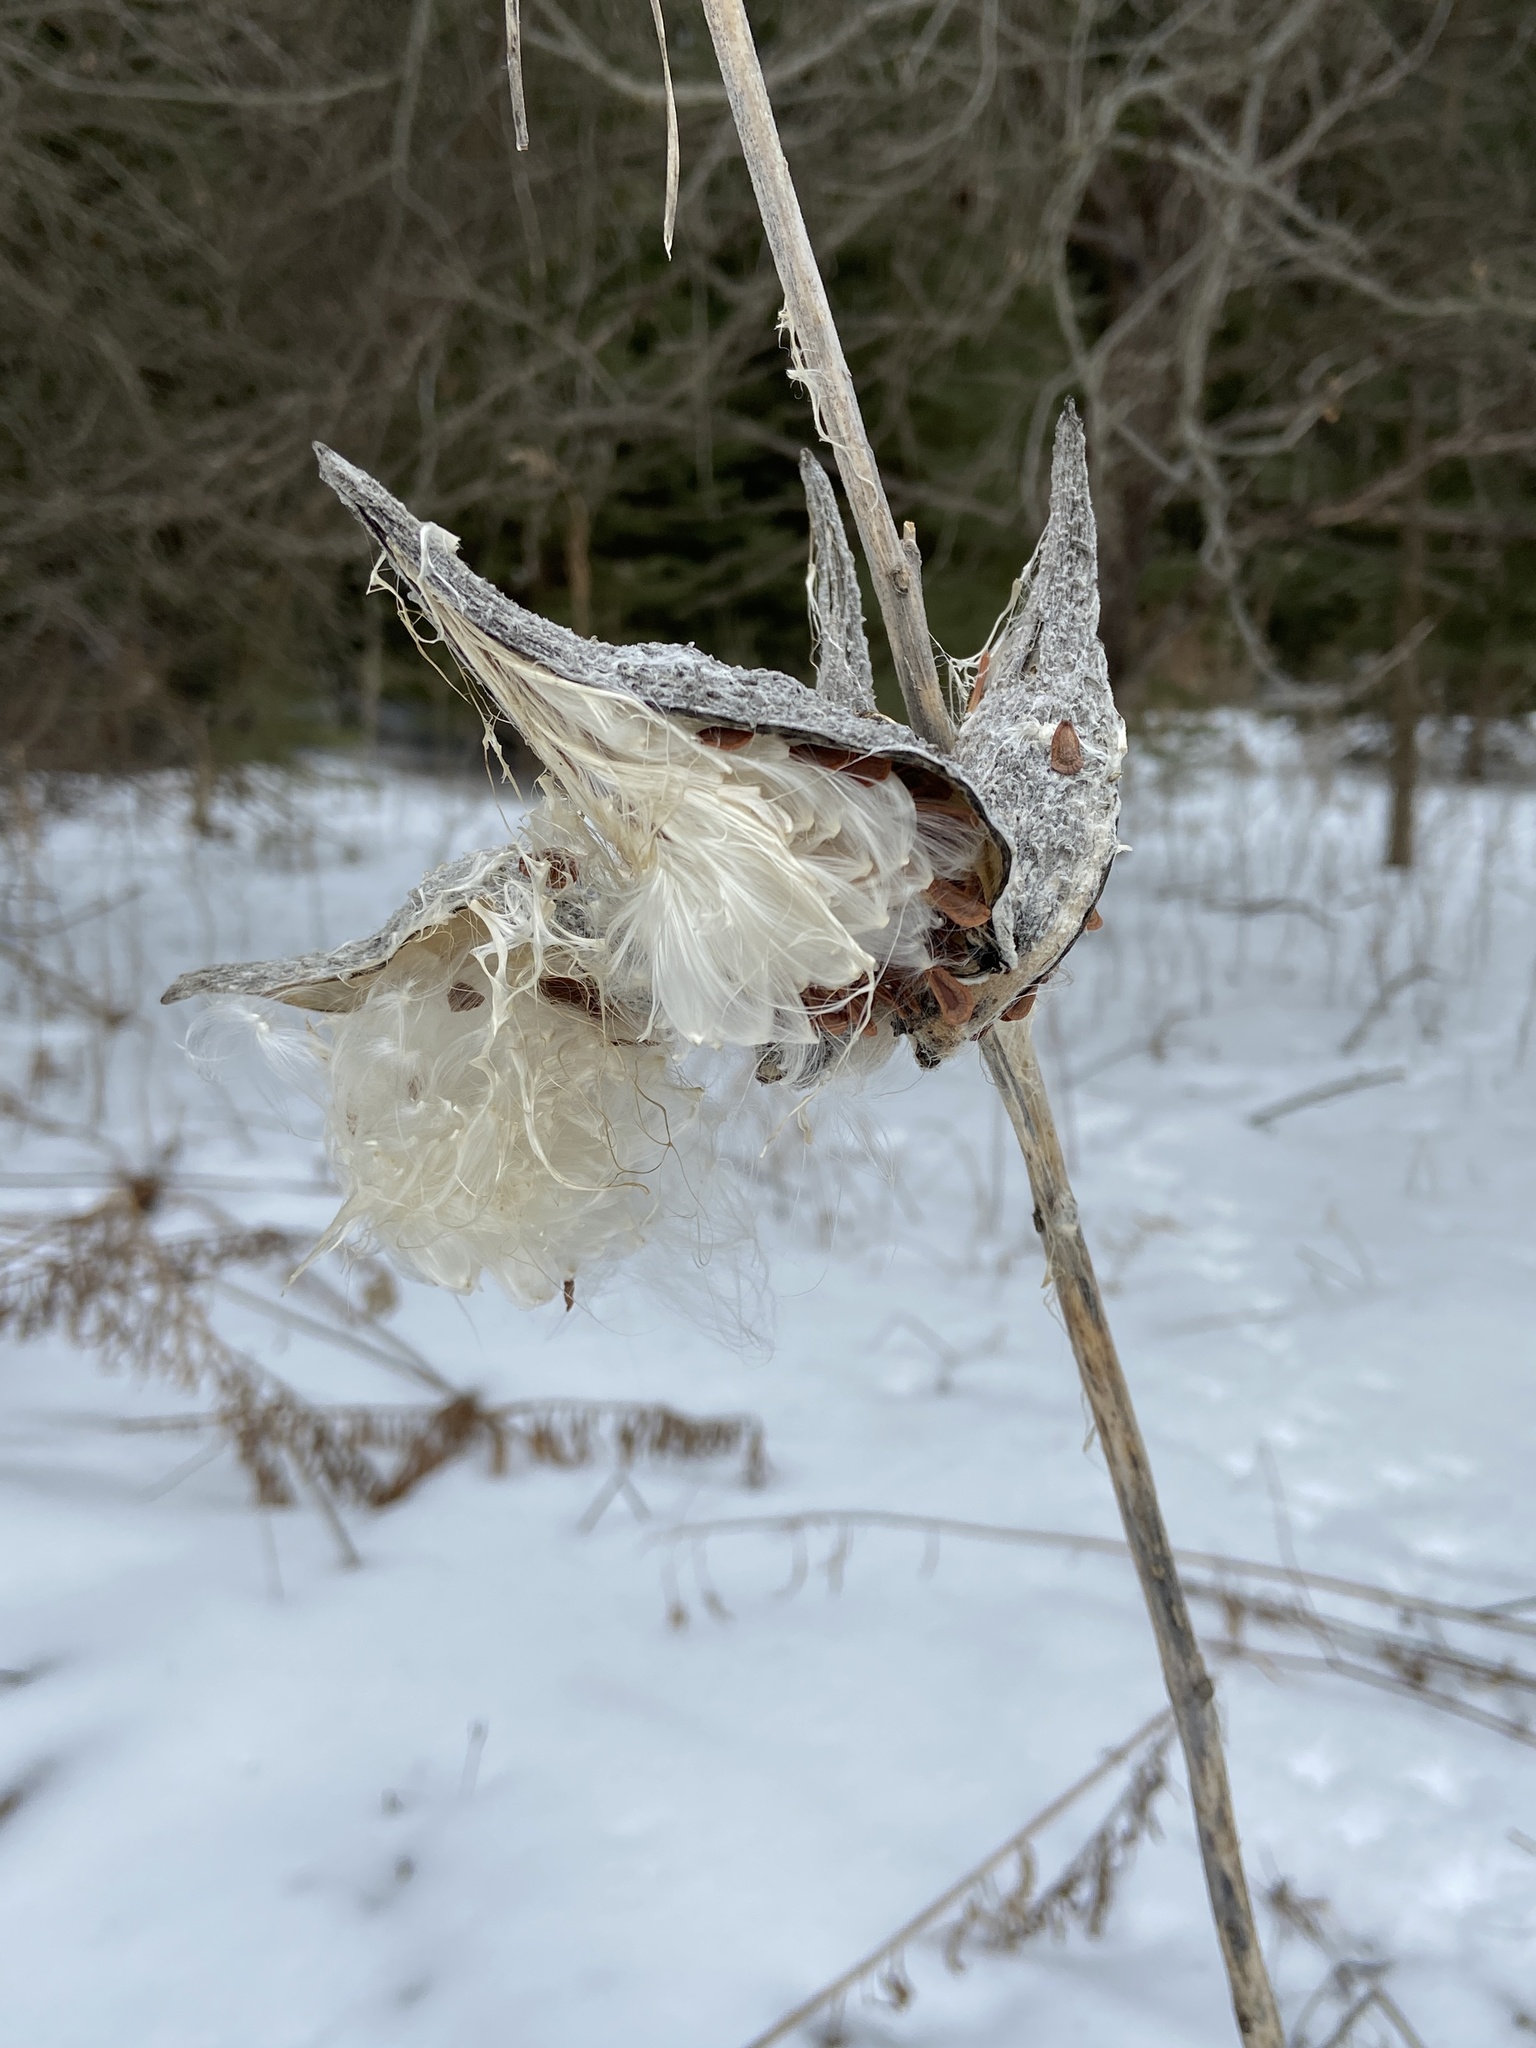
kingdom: Plantae
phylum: Tracheophyta
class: Magnoliopsida
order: Gentianales
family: Apocynaceae
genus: Asclepias
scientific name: Asclepias syriaca
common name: Common milkweed
